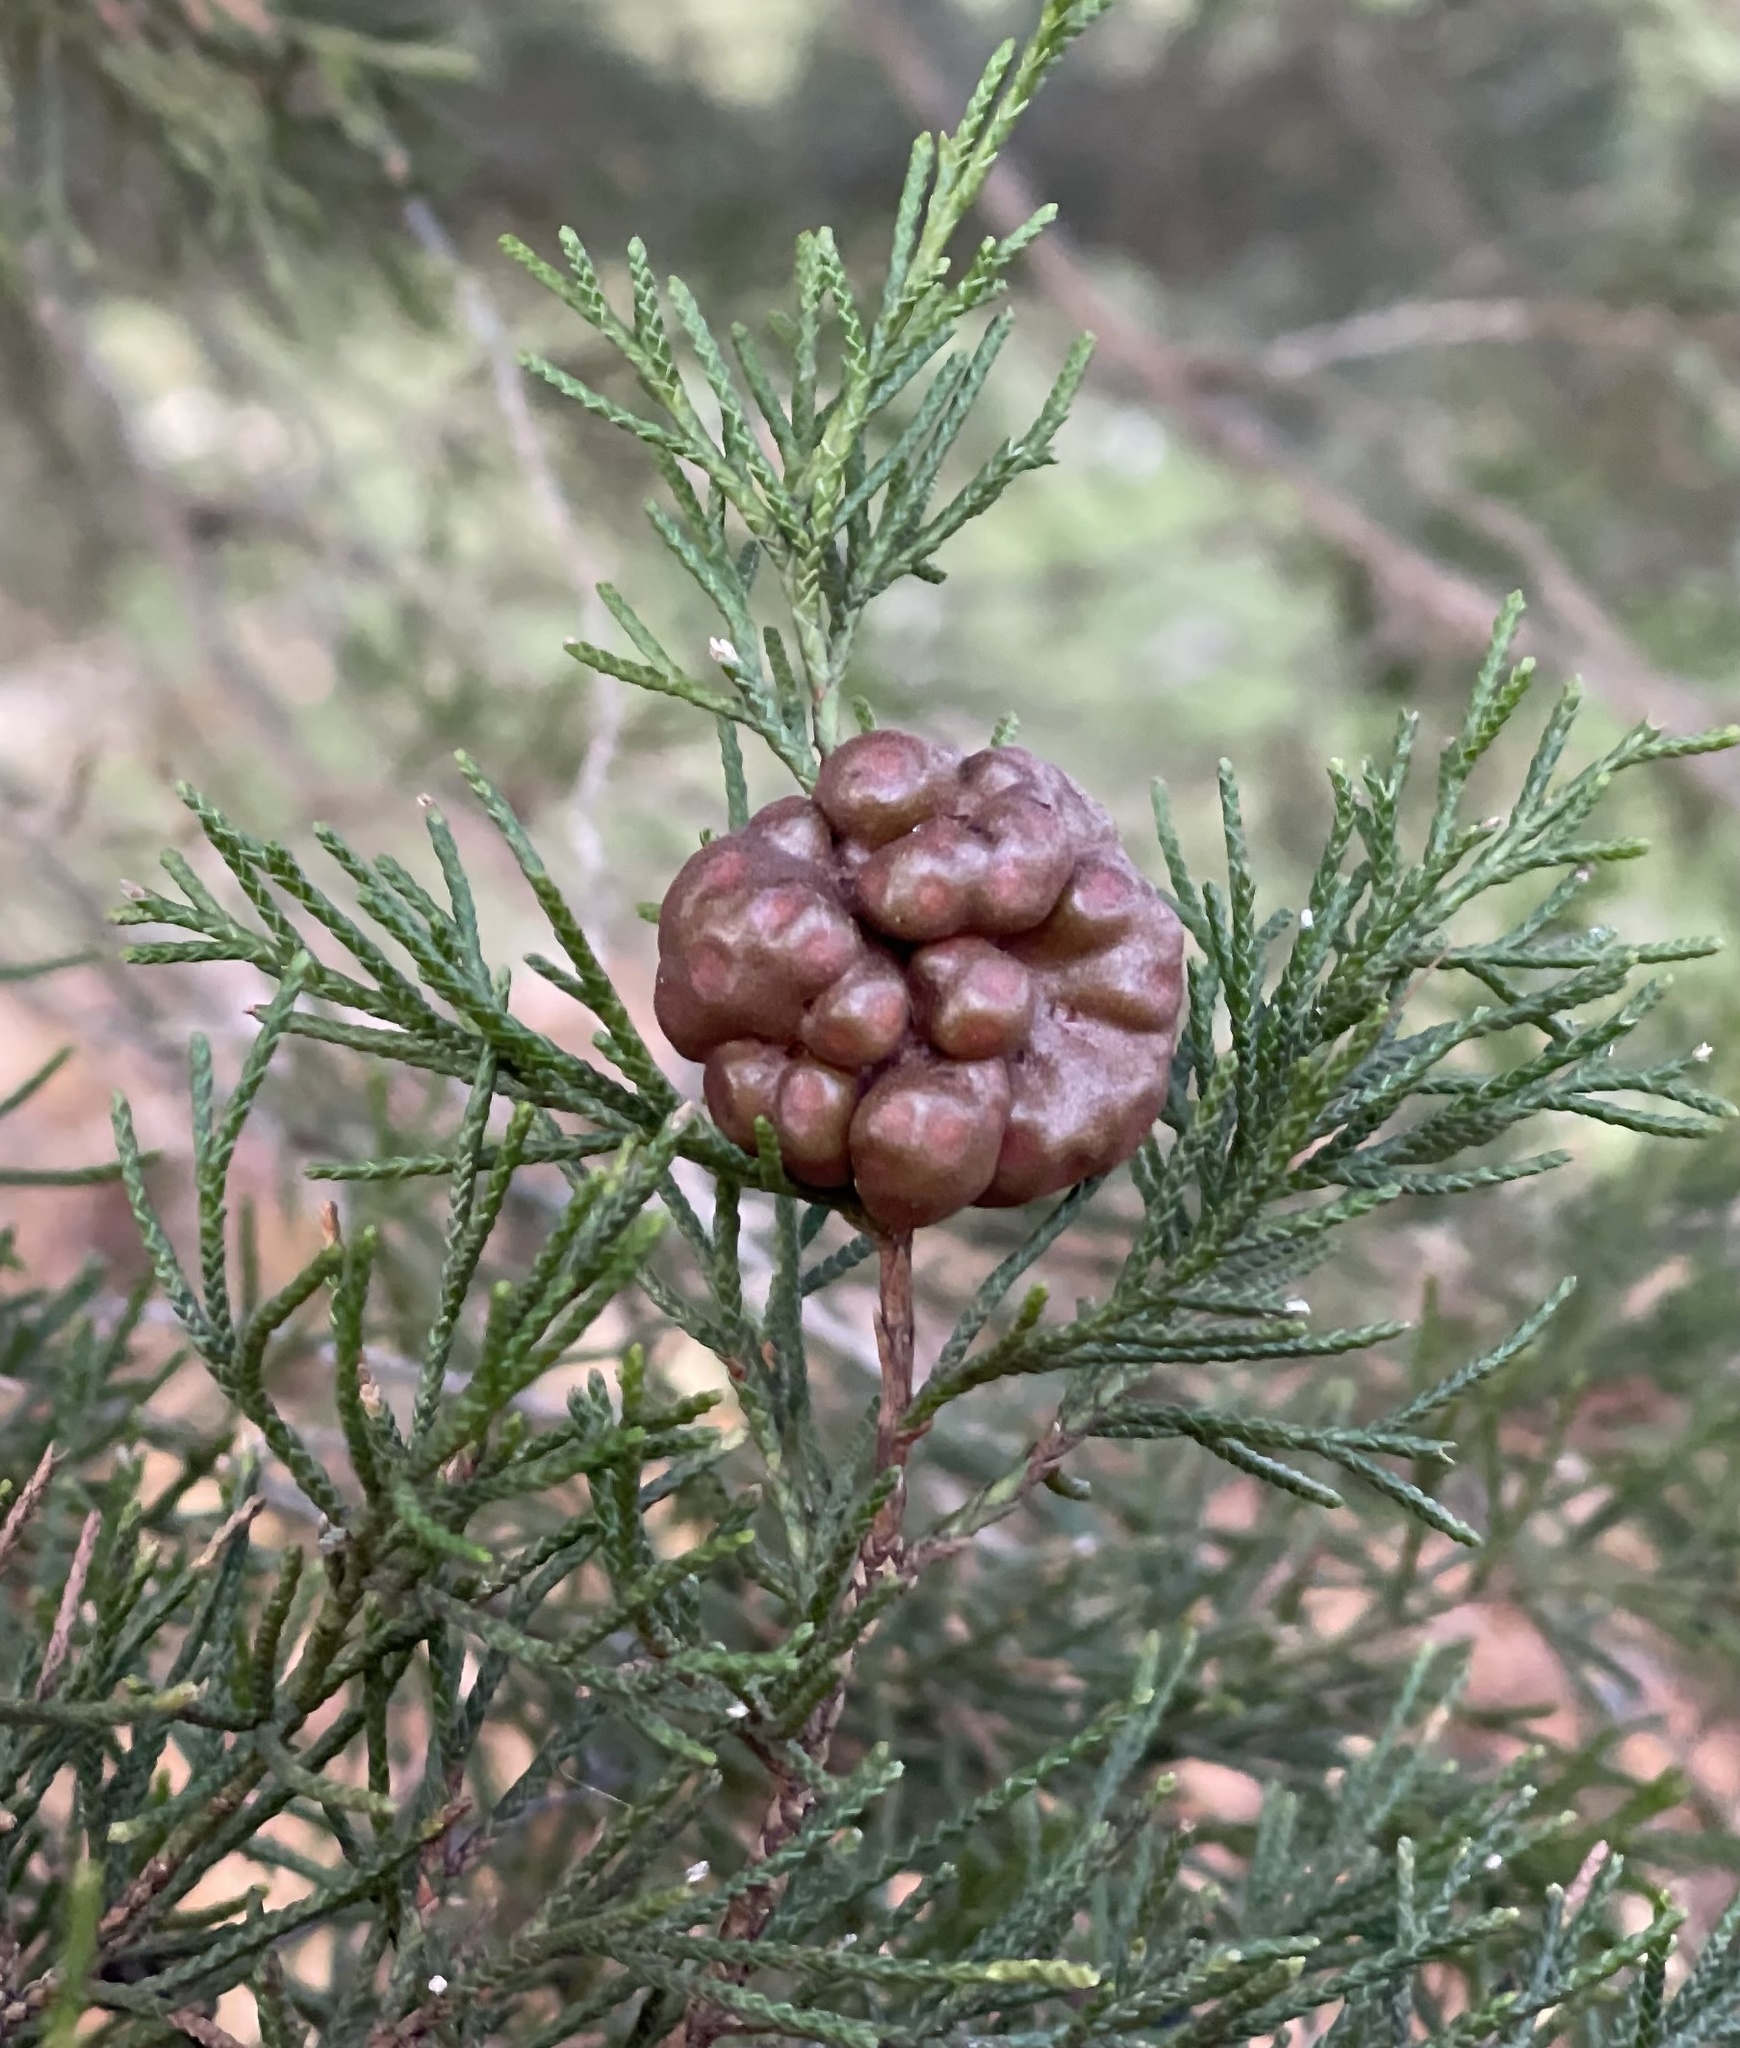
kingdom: Fungi
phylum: Basidiomycota
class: Pucciniomycetes
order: Pucciniales
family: Gymnosporangiaceae
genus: Gymnosporangium
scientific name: Gymnosporangium juniperi-virginianae
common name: Juniper-apple rust
